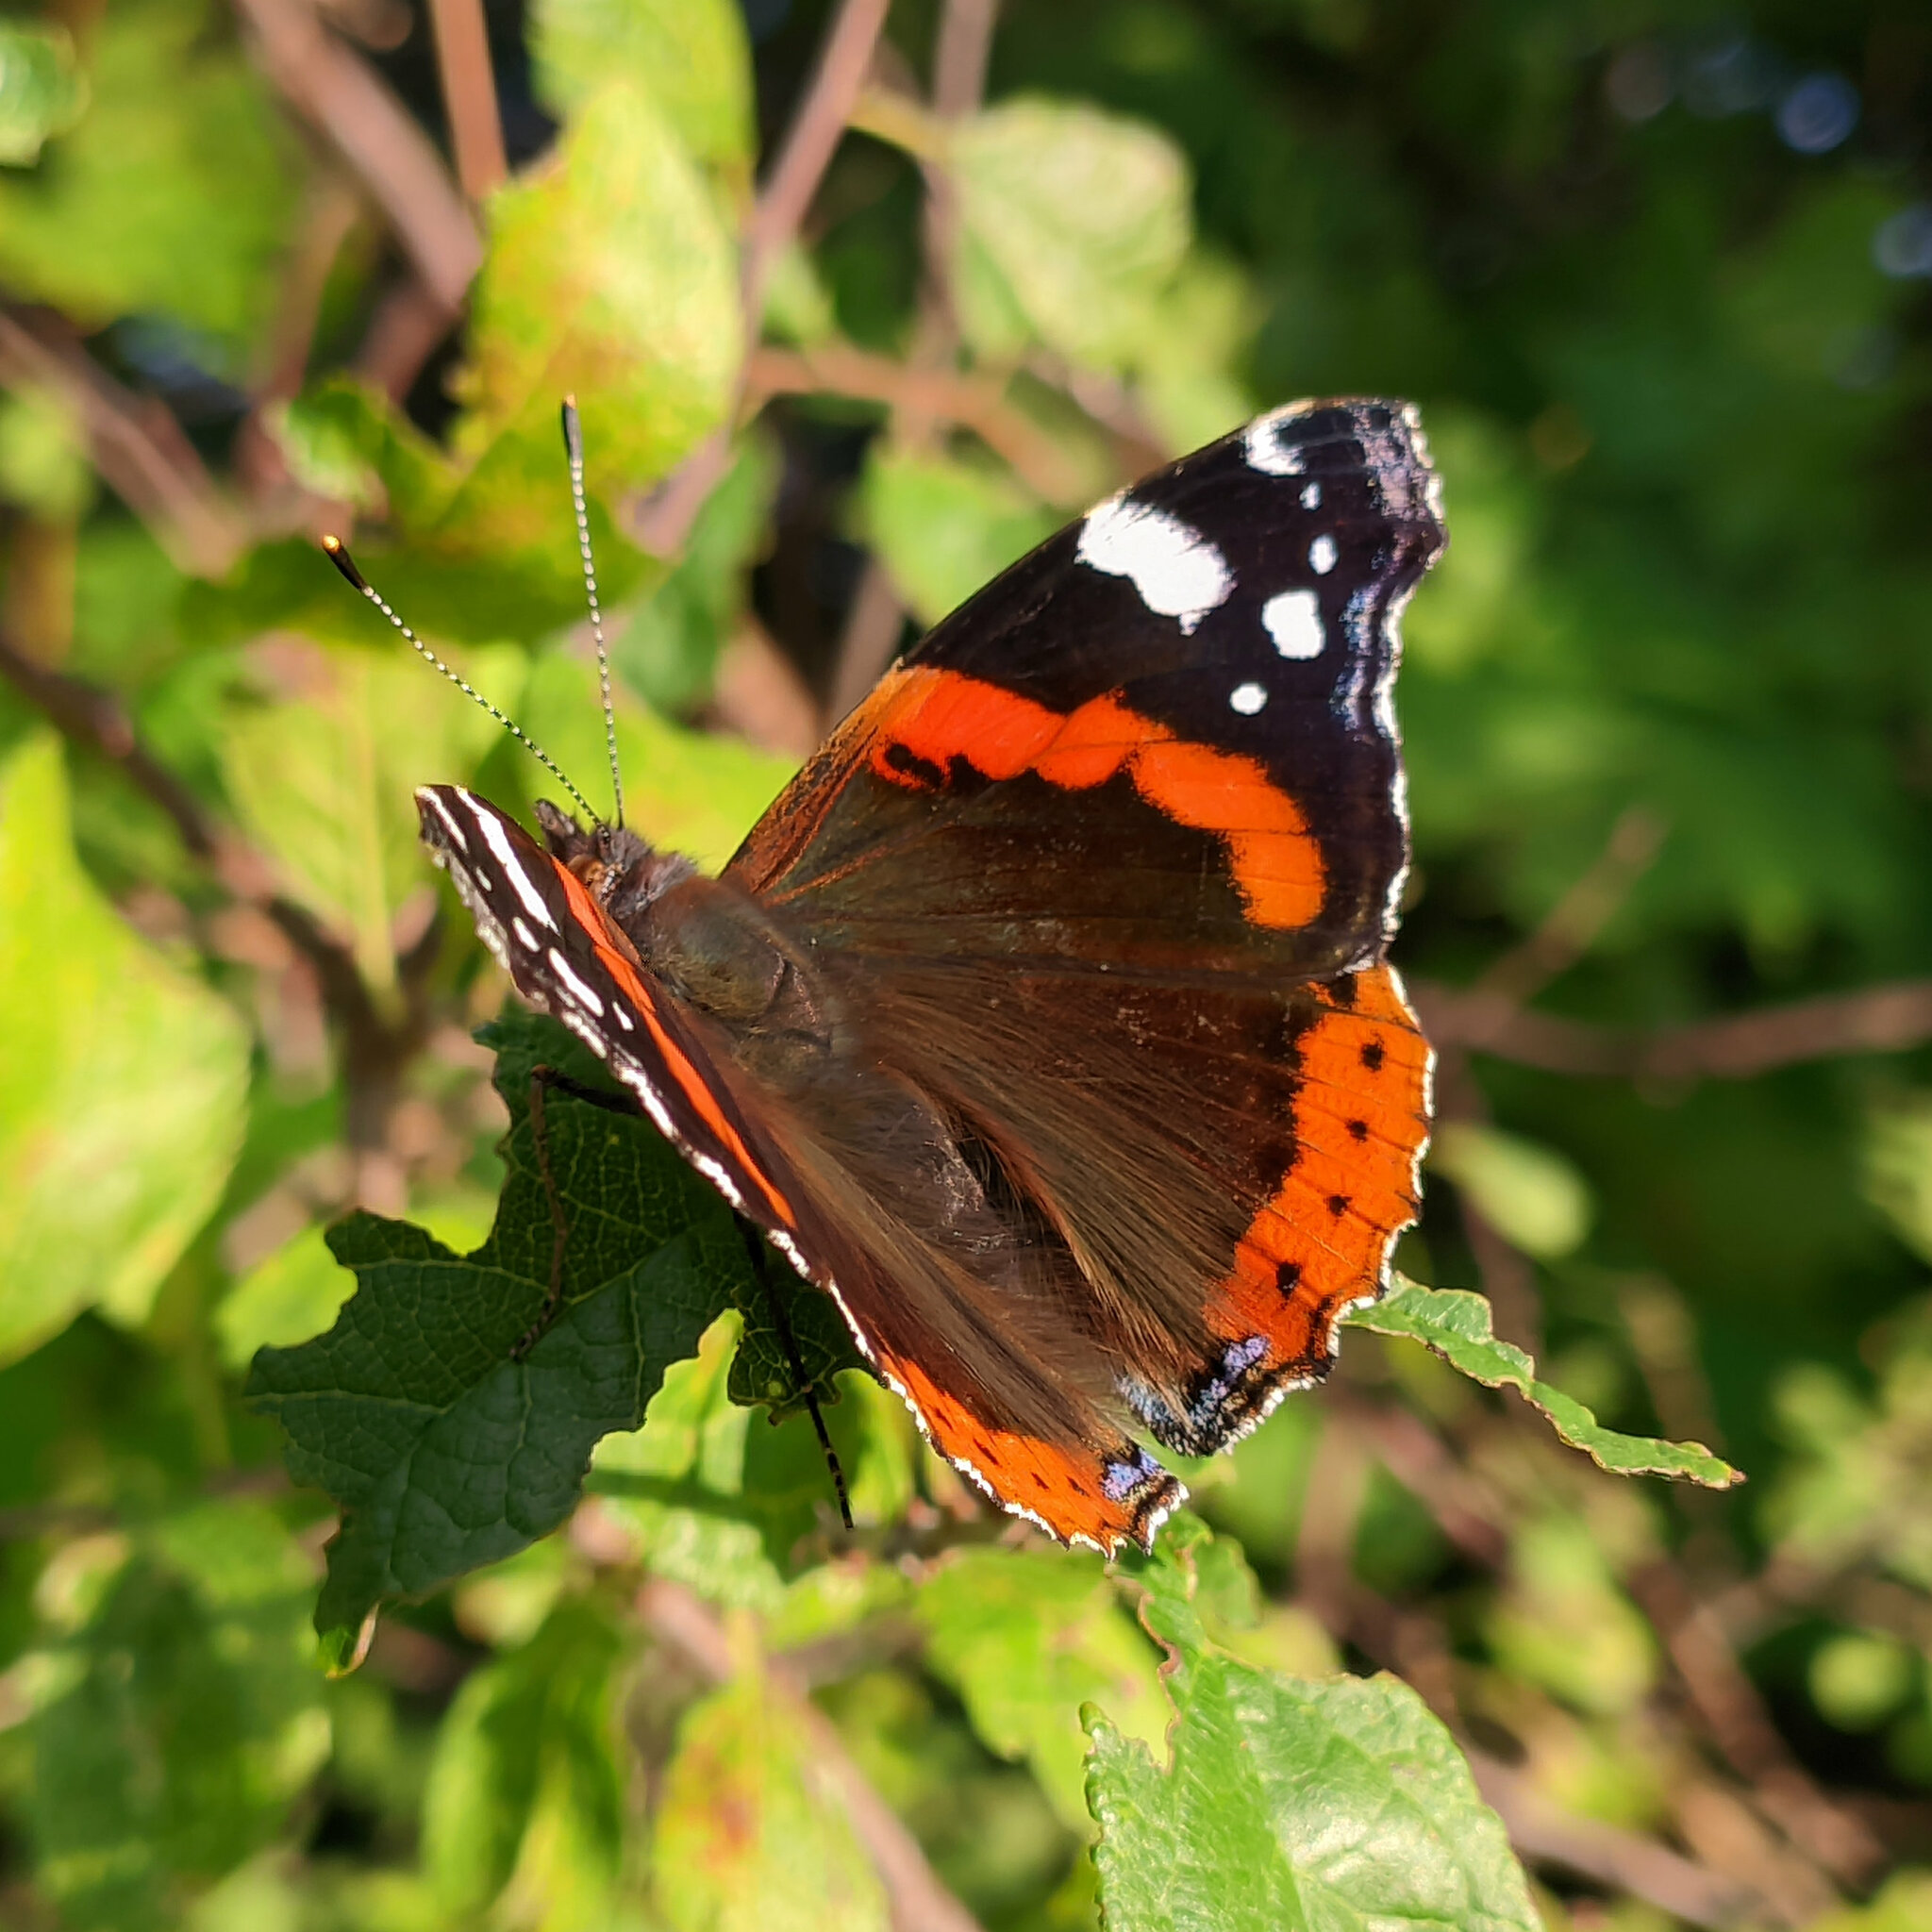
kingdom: Animalia
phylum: Arthropoda
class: Insecta
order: Lepidoptera
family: Nymphalidae
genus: Vanessa
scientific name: Vanessa atalanta
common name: Red admiral
